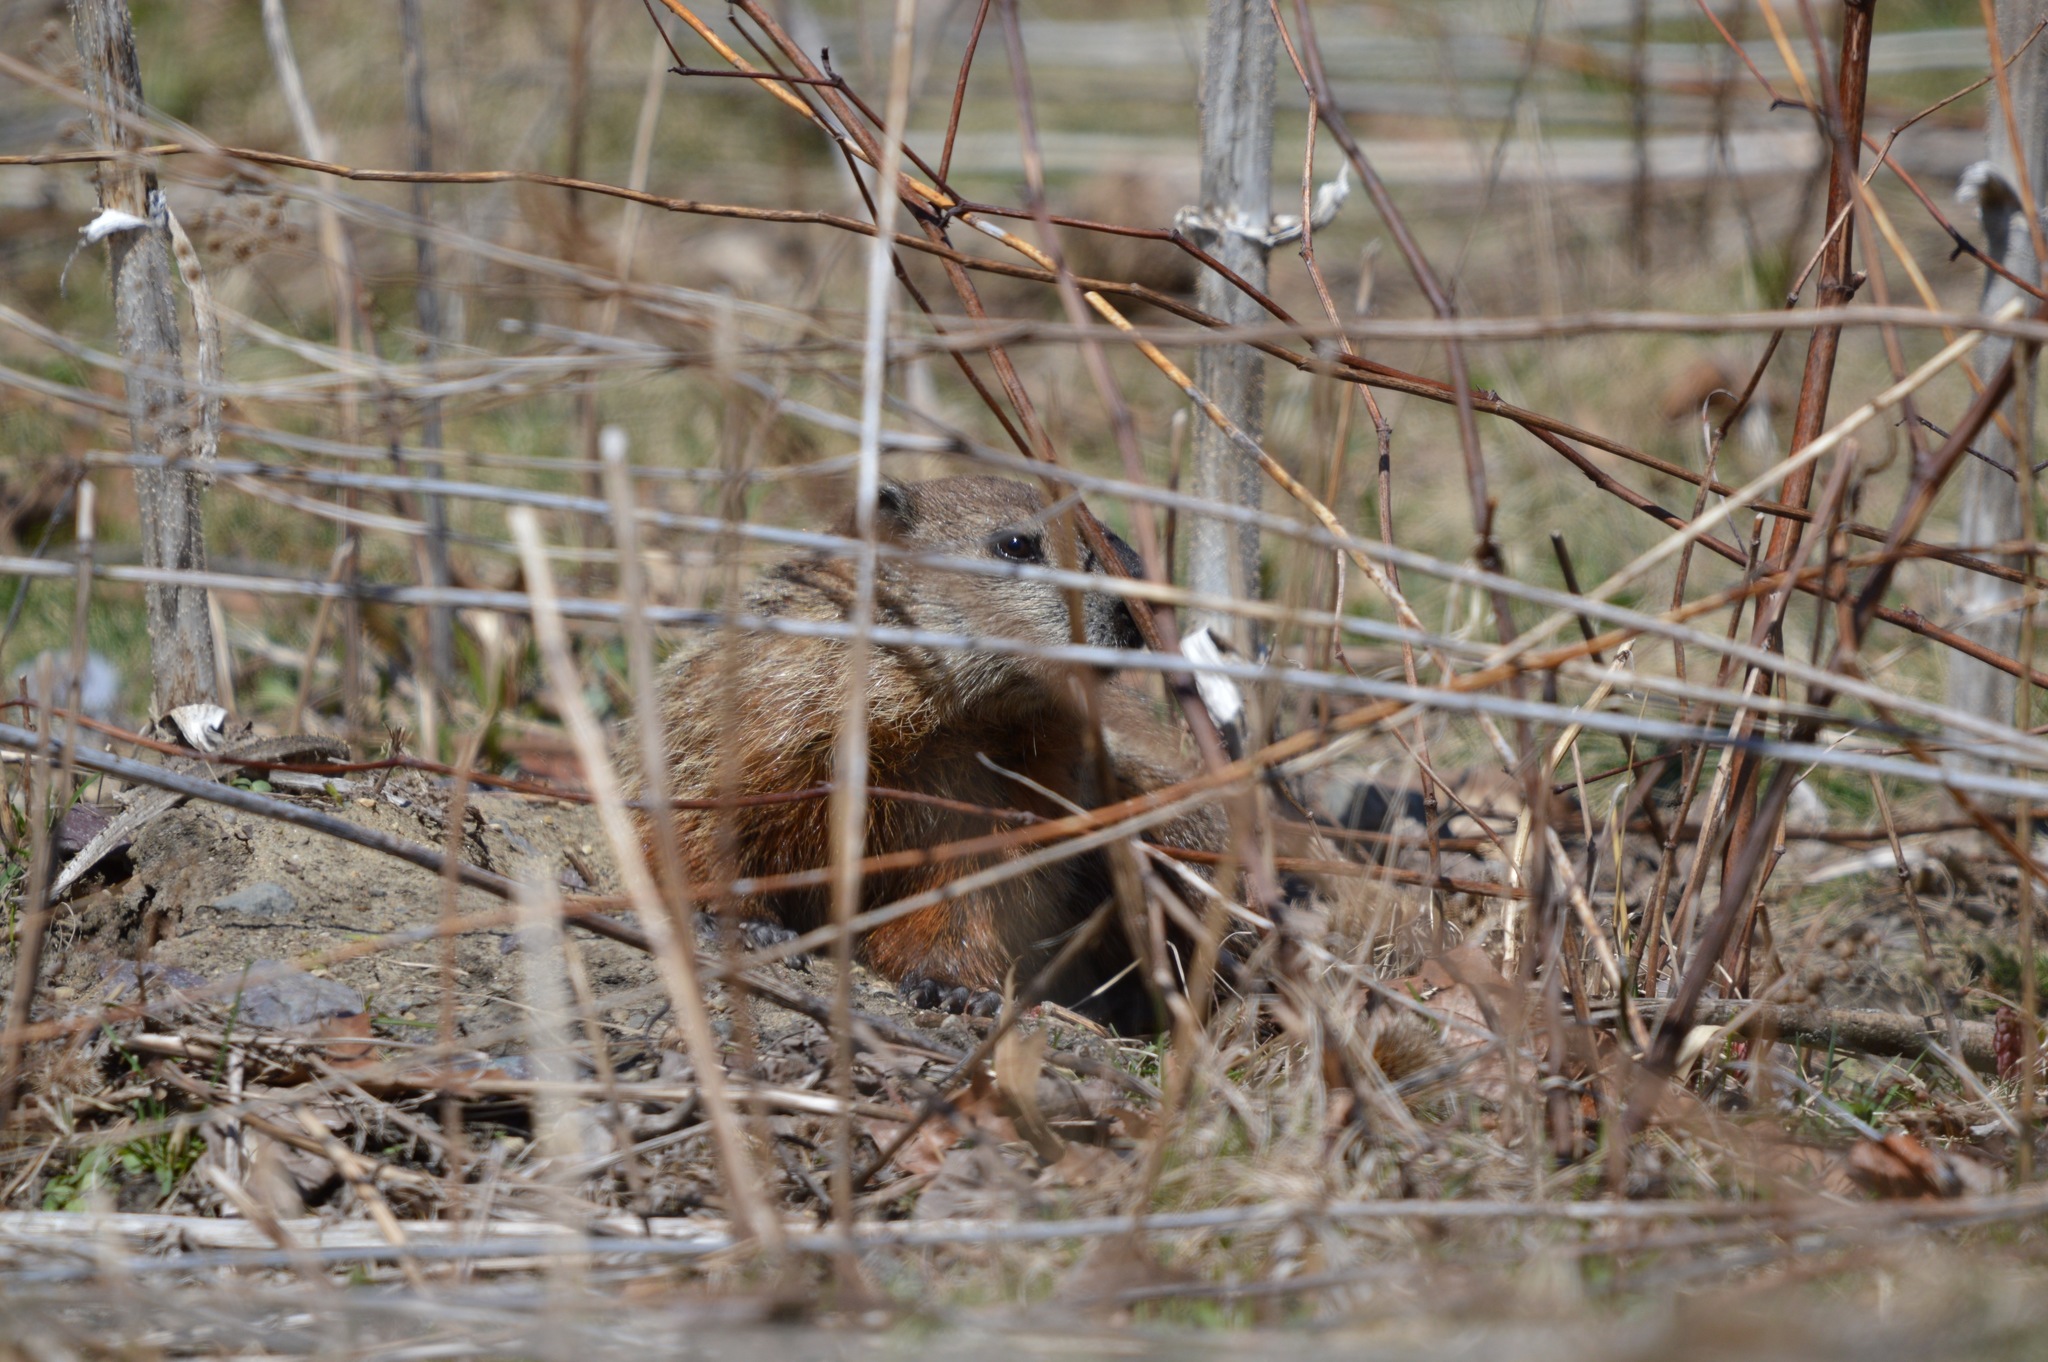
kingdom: Animalia
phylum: Chordata
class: Mammalia
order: Rodentia
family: Sciuridae
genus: Marmota
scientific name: Marmota monax
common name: Groundhog
